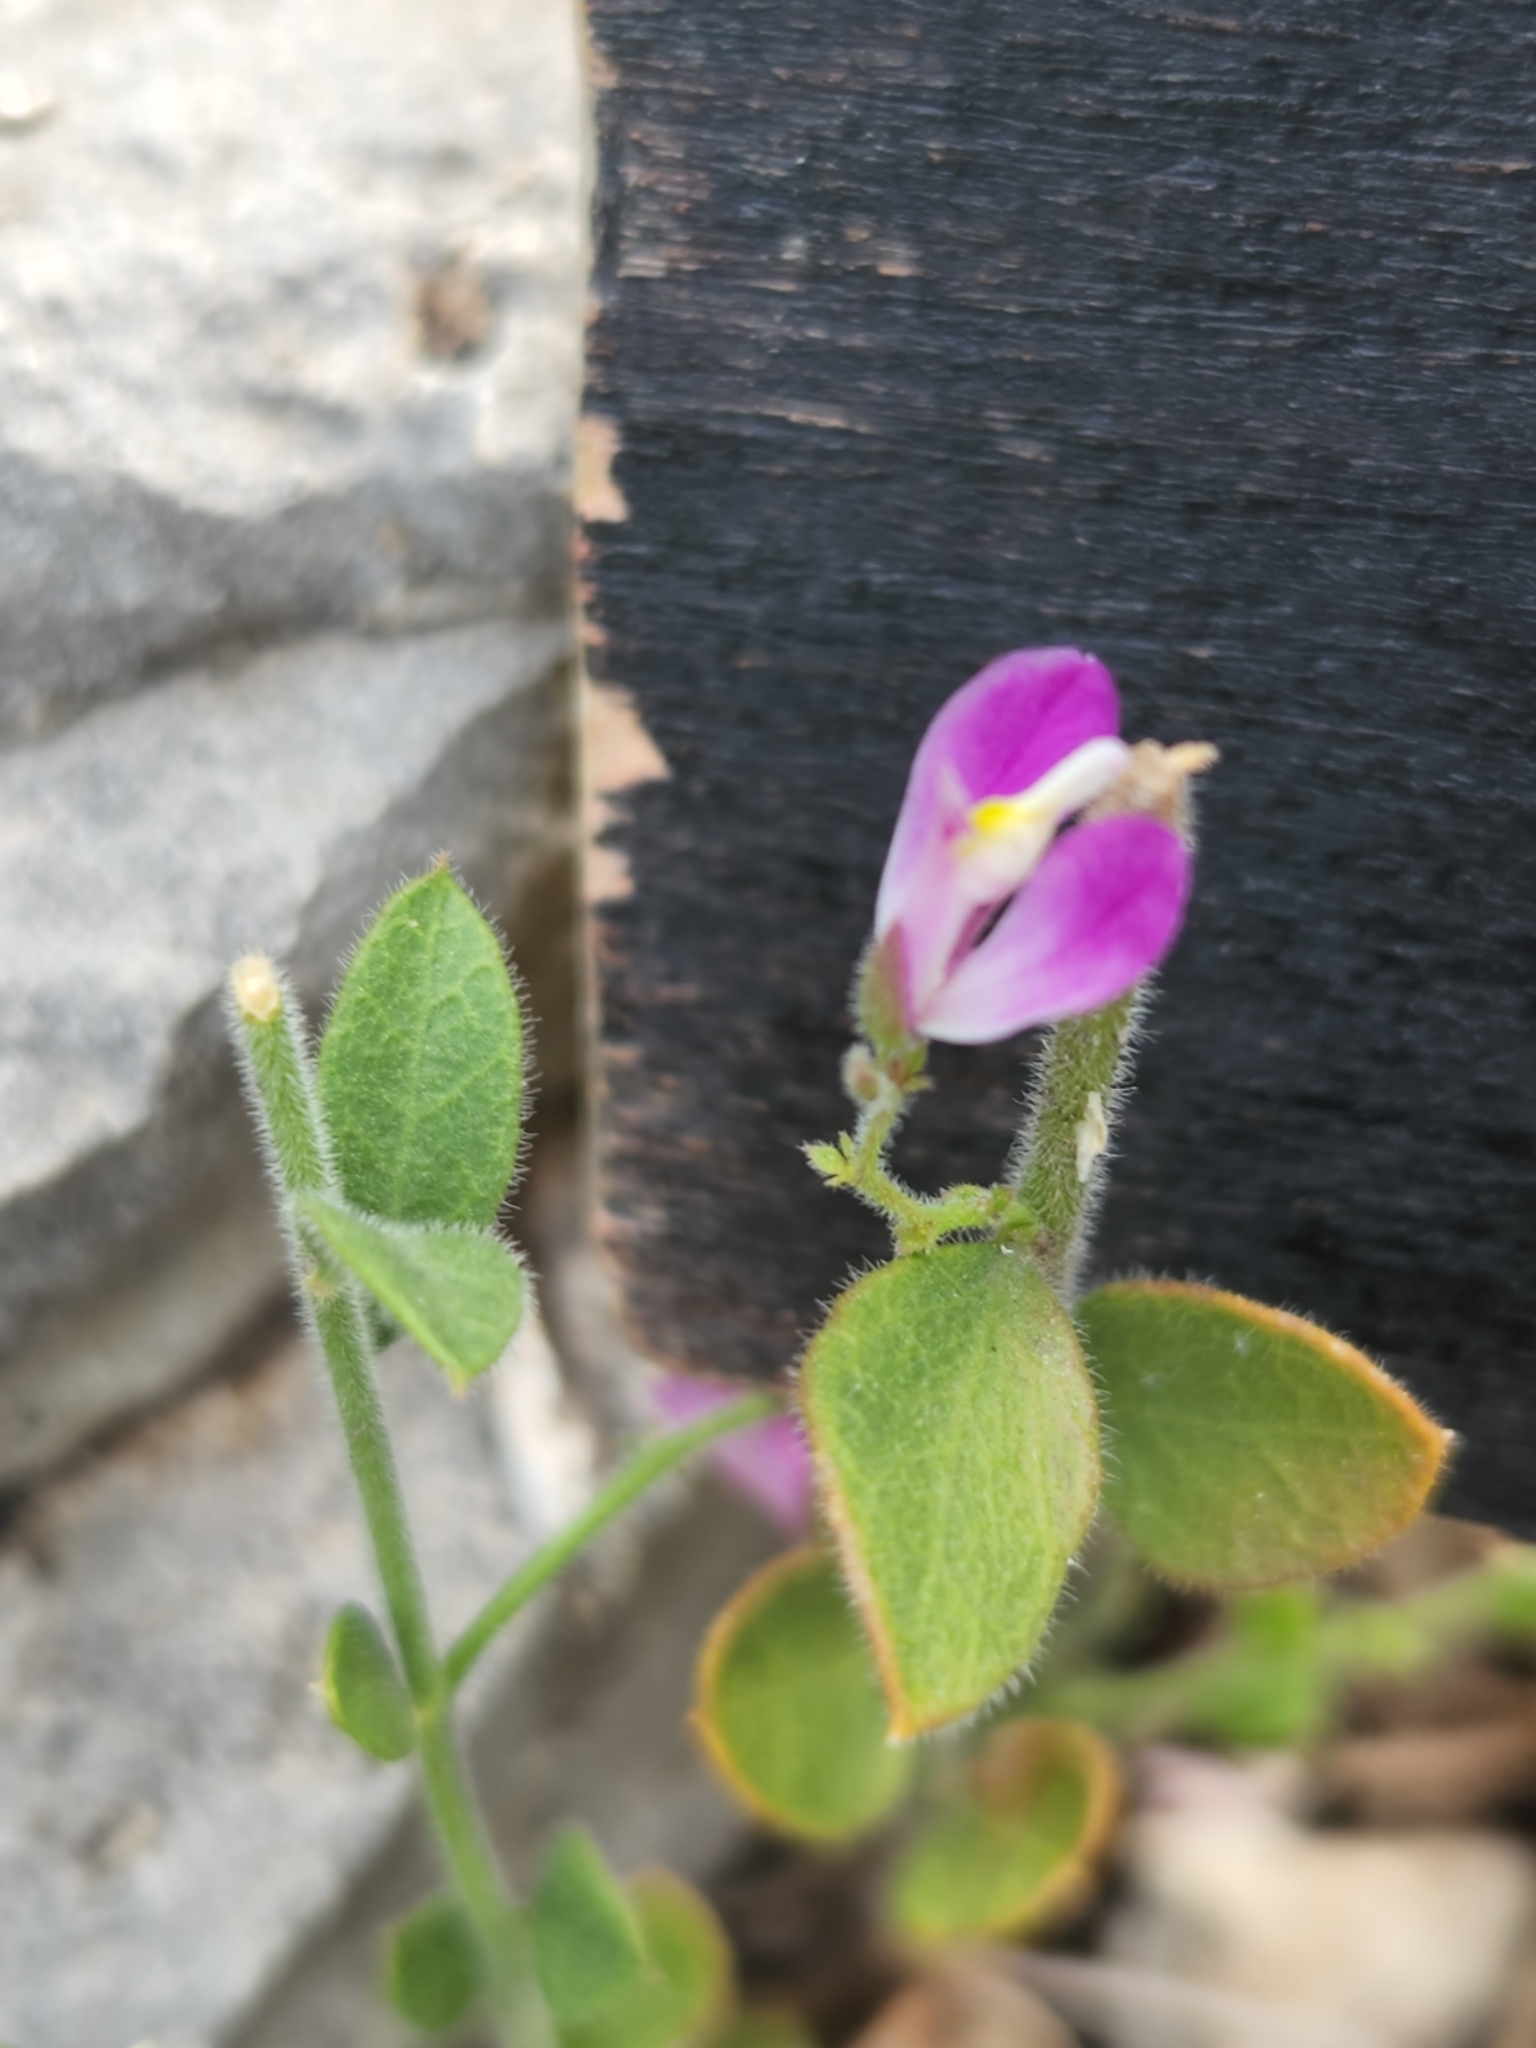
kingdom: Plantae
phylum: Tracheophyta
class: Magnoliopsida
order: Fabales
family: Polygalaceae
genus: Rhinotropis
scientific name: Rhinotropis lindheimeri
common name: Shrubby milkwort
